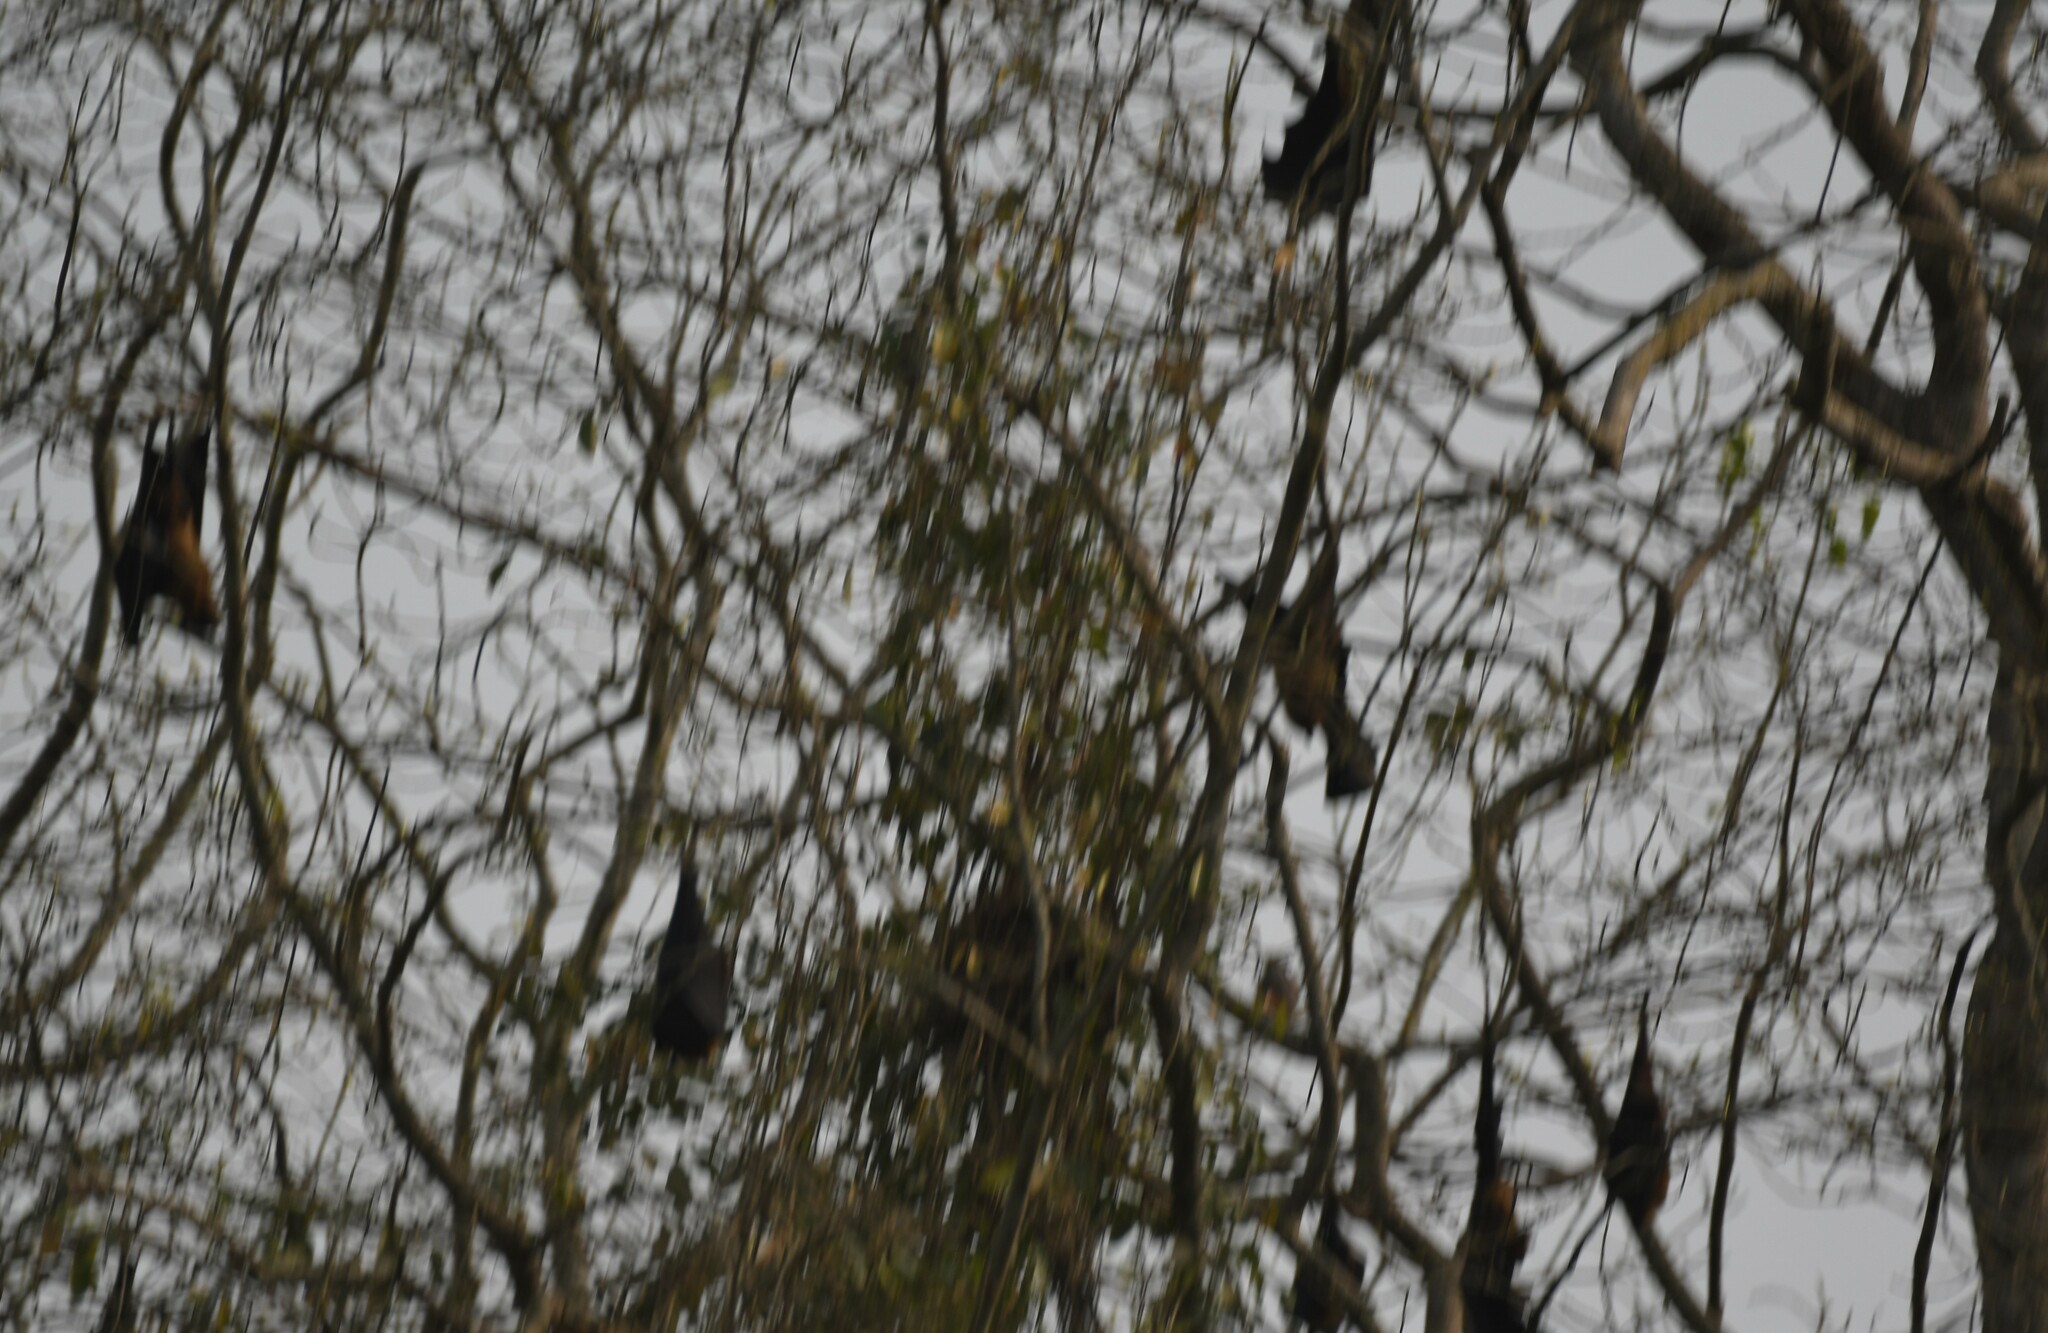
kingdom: Animalia
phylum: Chordata
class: Mammalia
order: Chiroptera
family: Pteropodidae
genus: Pteropus
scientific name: Pteropus vampyrus
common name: Large flying fox
